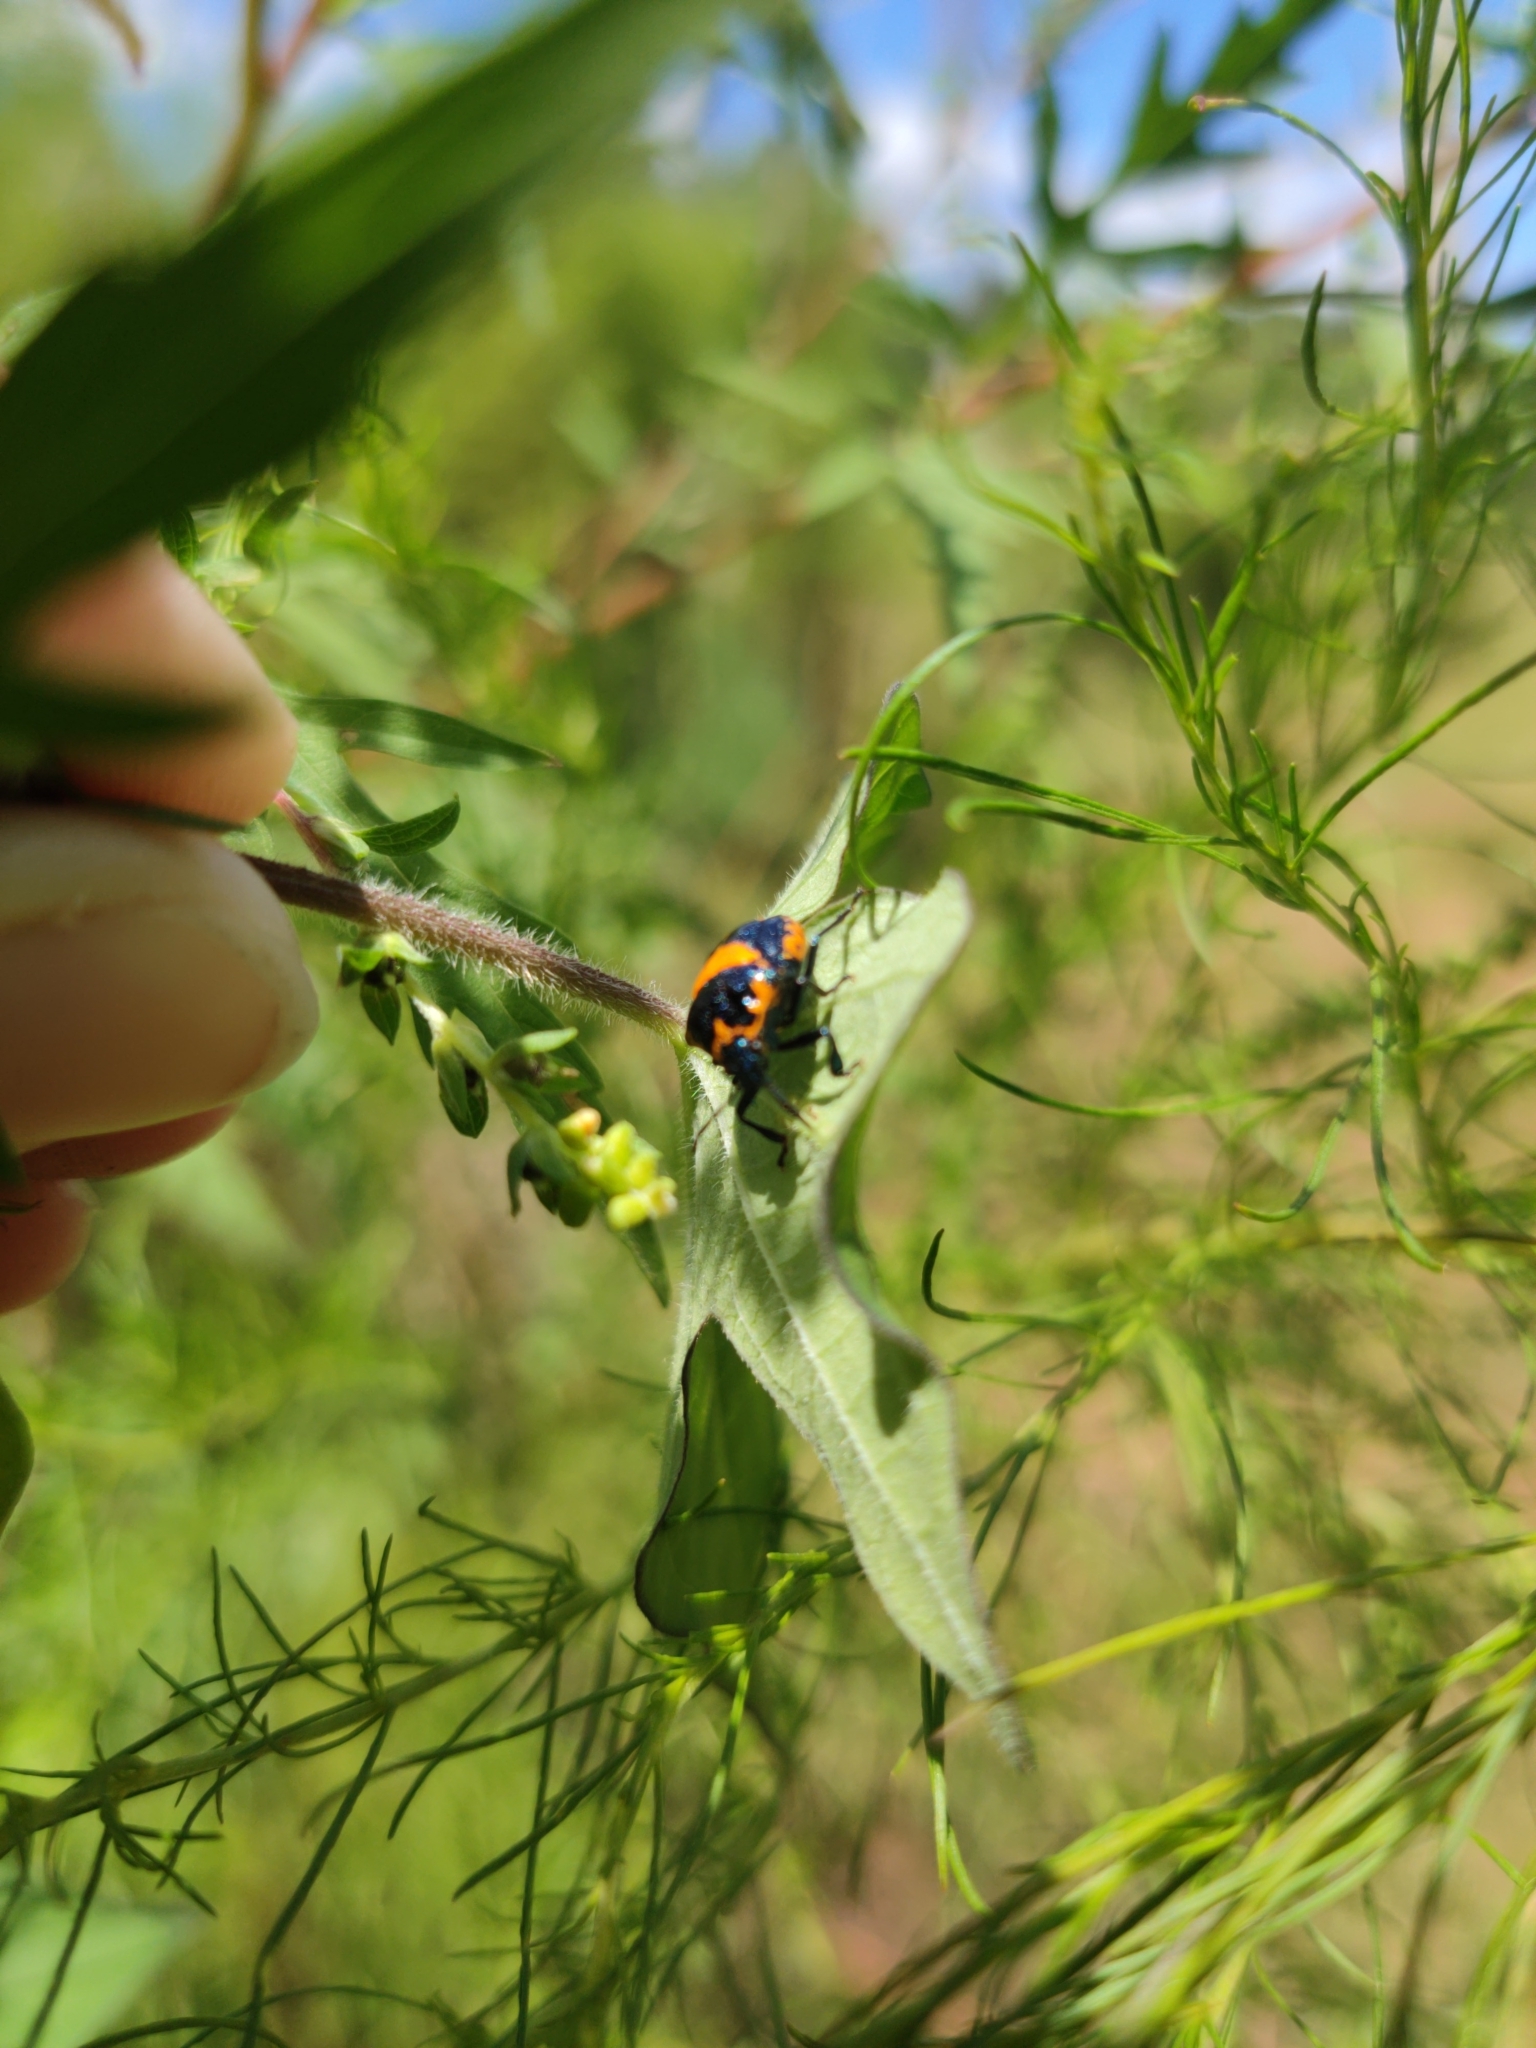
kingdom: Animalia
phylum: Arthropoda
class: Insecta
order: Hemiptera
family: Pentatomidae
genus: Stiretrus
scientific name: Stiretrus anchorago
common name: Anchor stink bug
